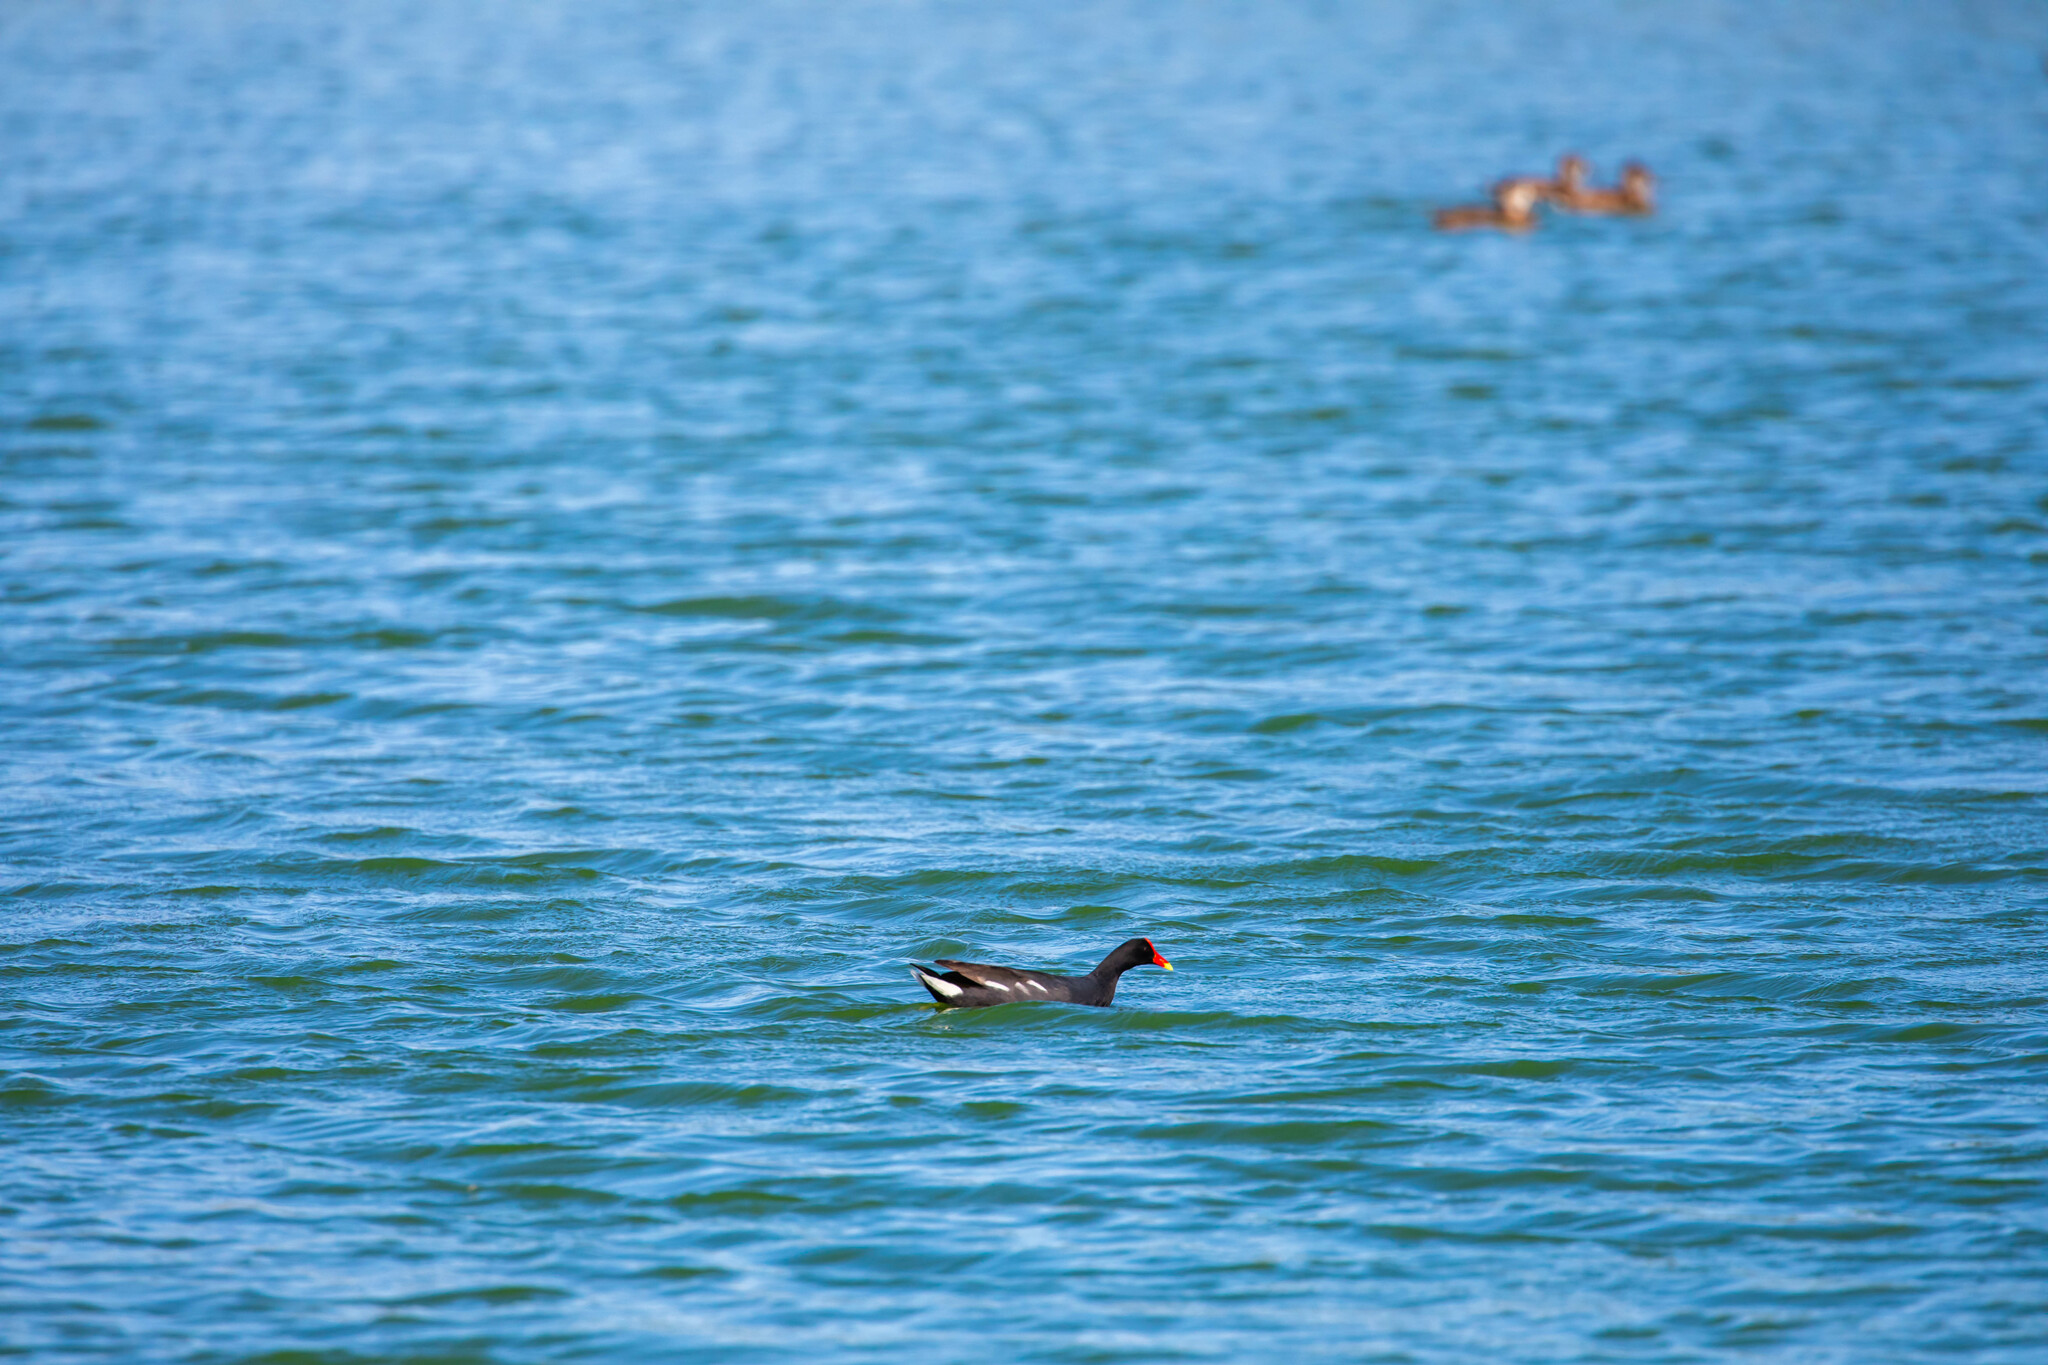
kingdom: Animalia
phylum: Chordata
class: Aves
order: Gruiformes
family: Rallidae
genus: Gallinula
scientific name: Gallinula chloropus
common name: Common moorhen
